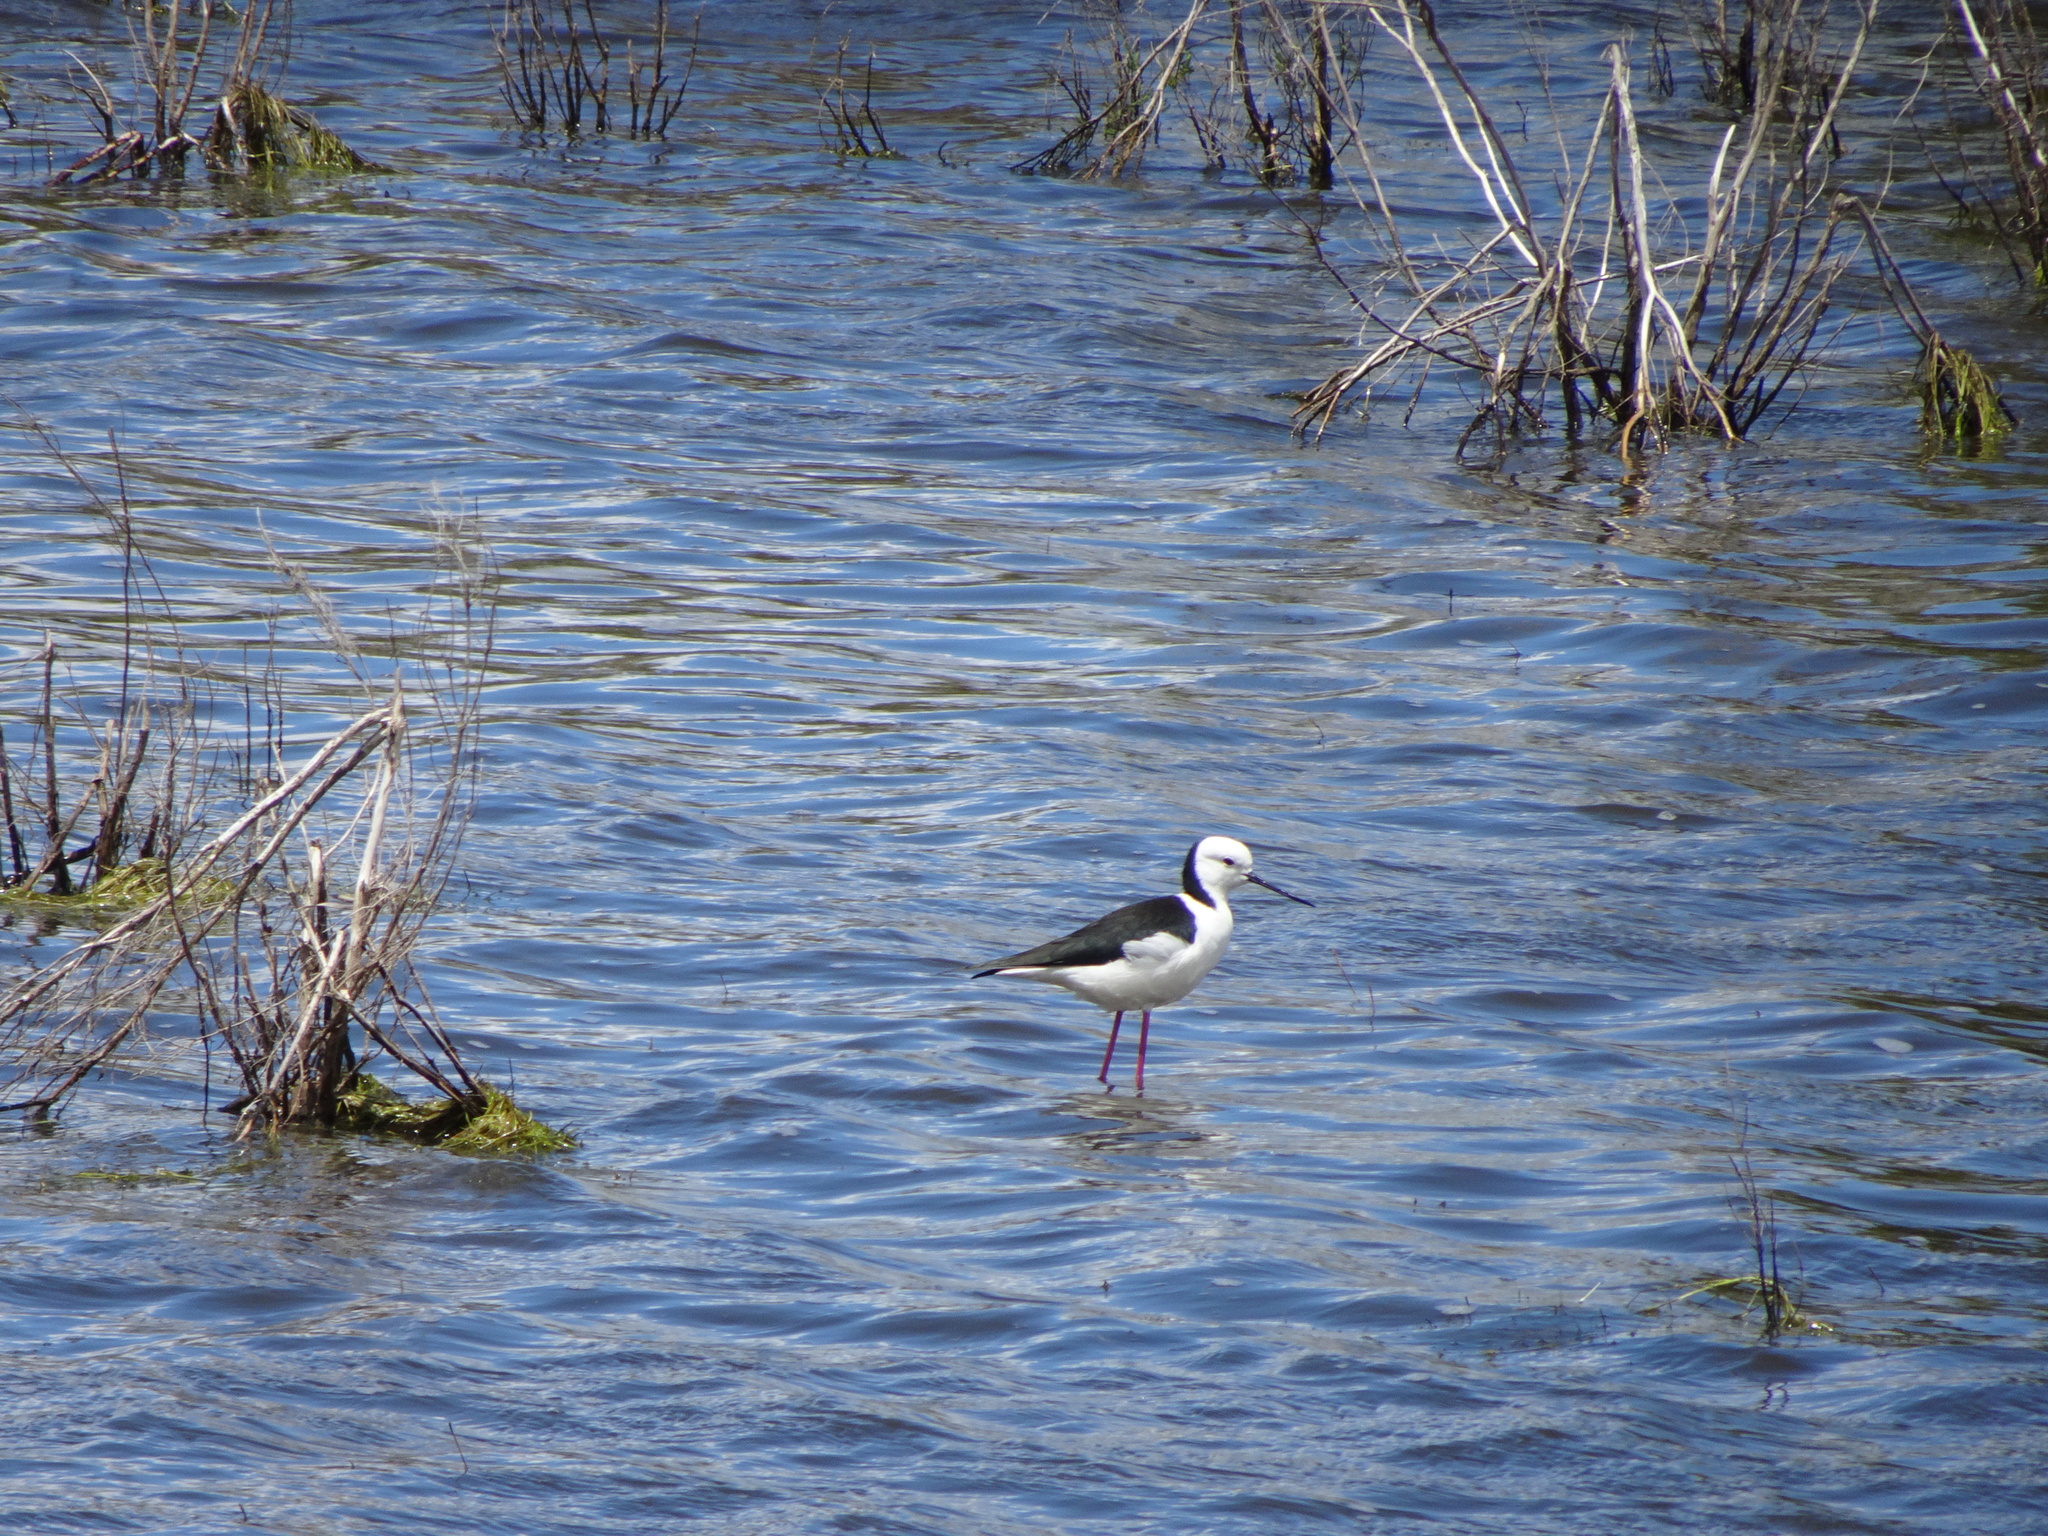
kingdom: Animalia
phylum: Chordata
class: Aves
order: Charadriiformes
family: Recurvirostridae
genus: Himantopus
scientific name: Himantopus leucocephalus
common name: White-headed stilt
